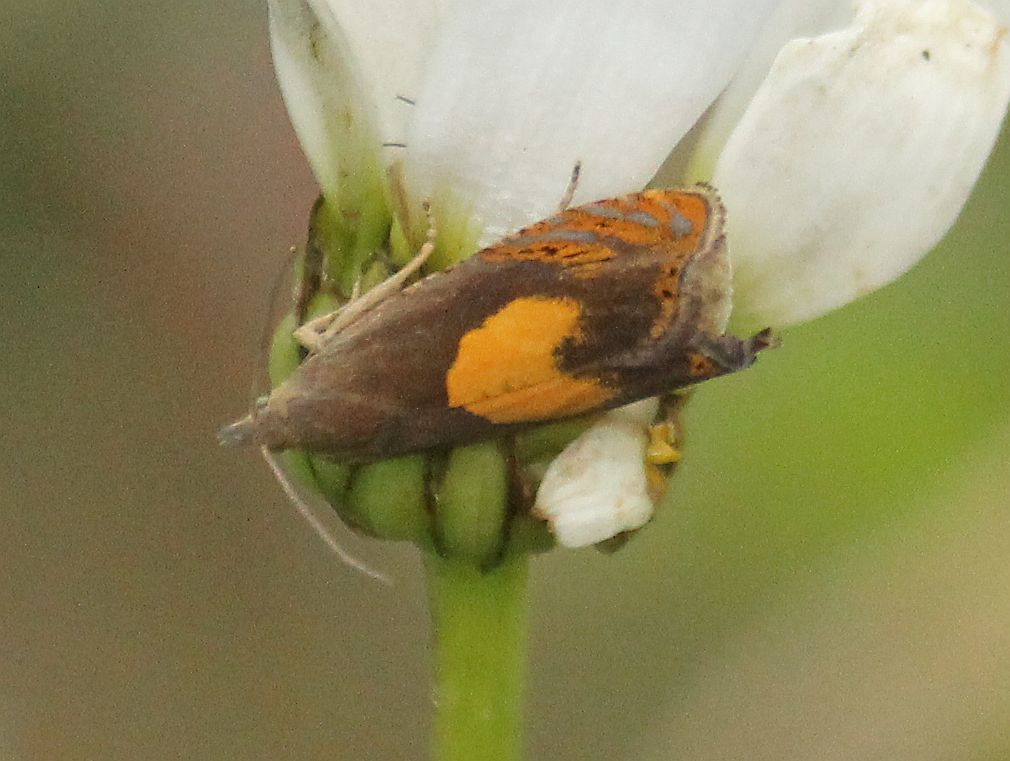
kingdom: Animalia
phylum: Arthropoda
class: Insecta
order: Lepidoptera
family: Tortricidae
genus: Dichrorampha
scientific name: Dichrorampha alpinana
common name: Broad-blotch drill
